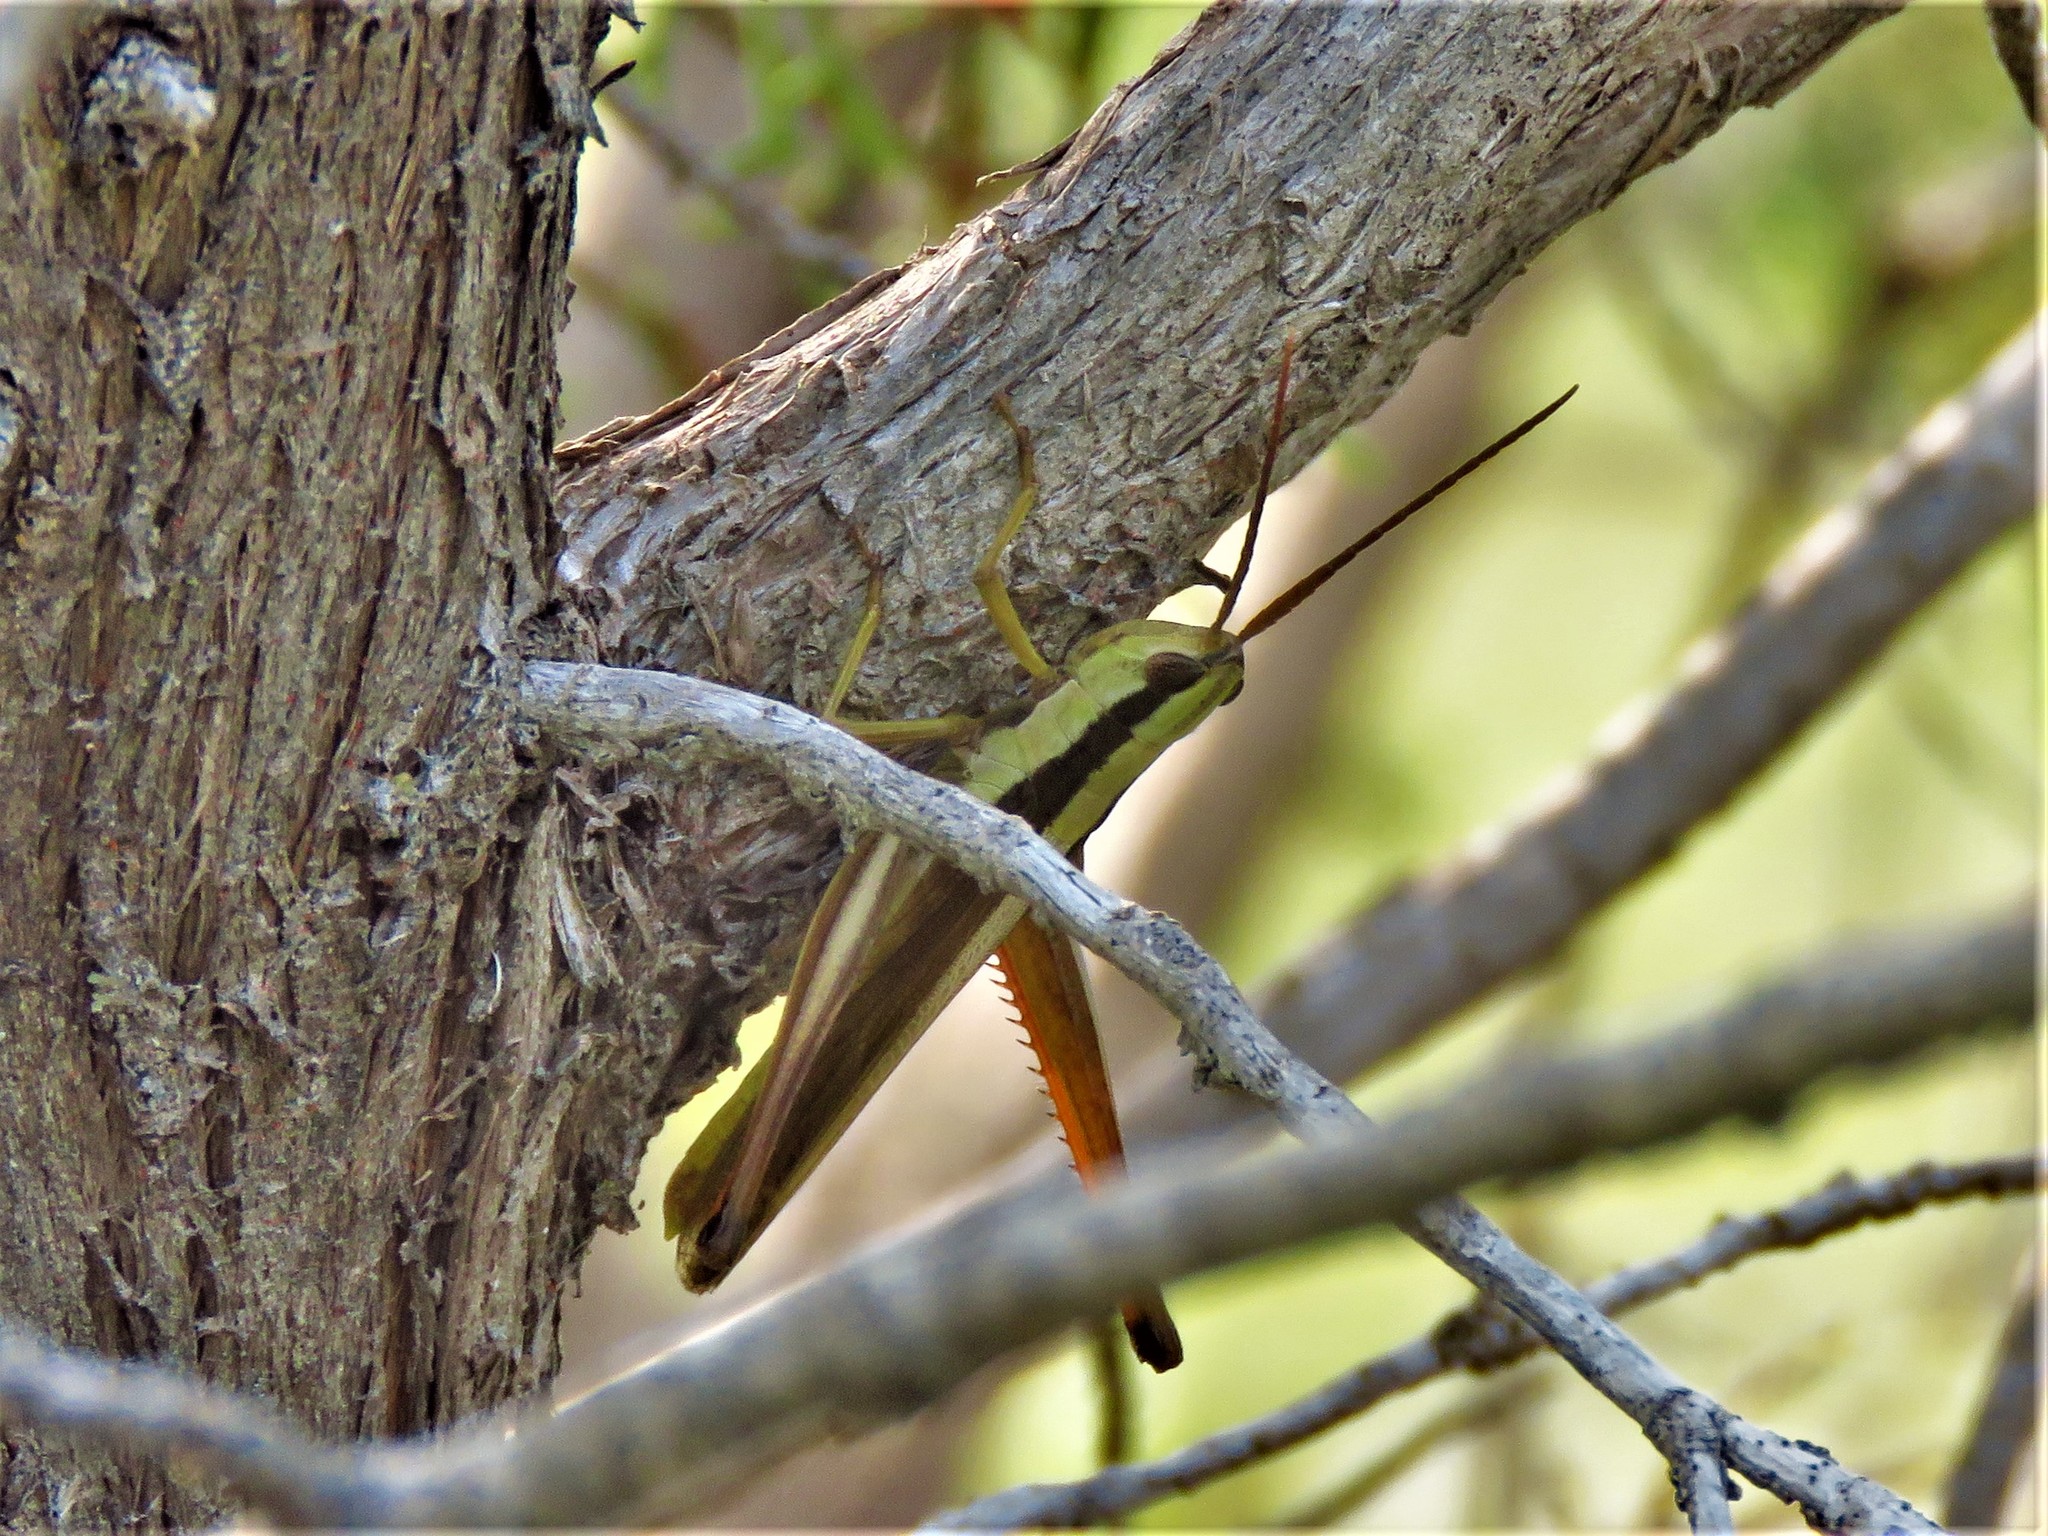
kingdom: Animalia
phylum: Arthropoda
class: Insecta
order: Orthoptera
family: Acrididae
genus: Mermiria
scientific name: Mermiria bivittata
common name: Two-striped mermiria grasshopper
